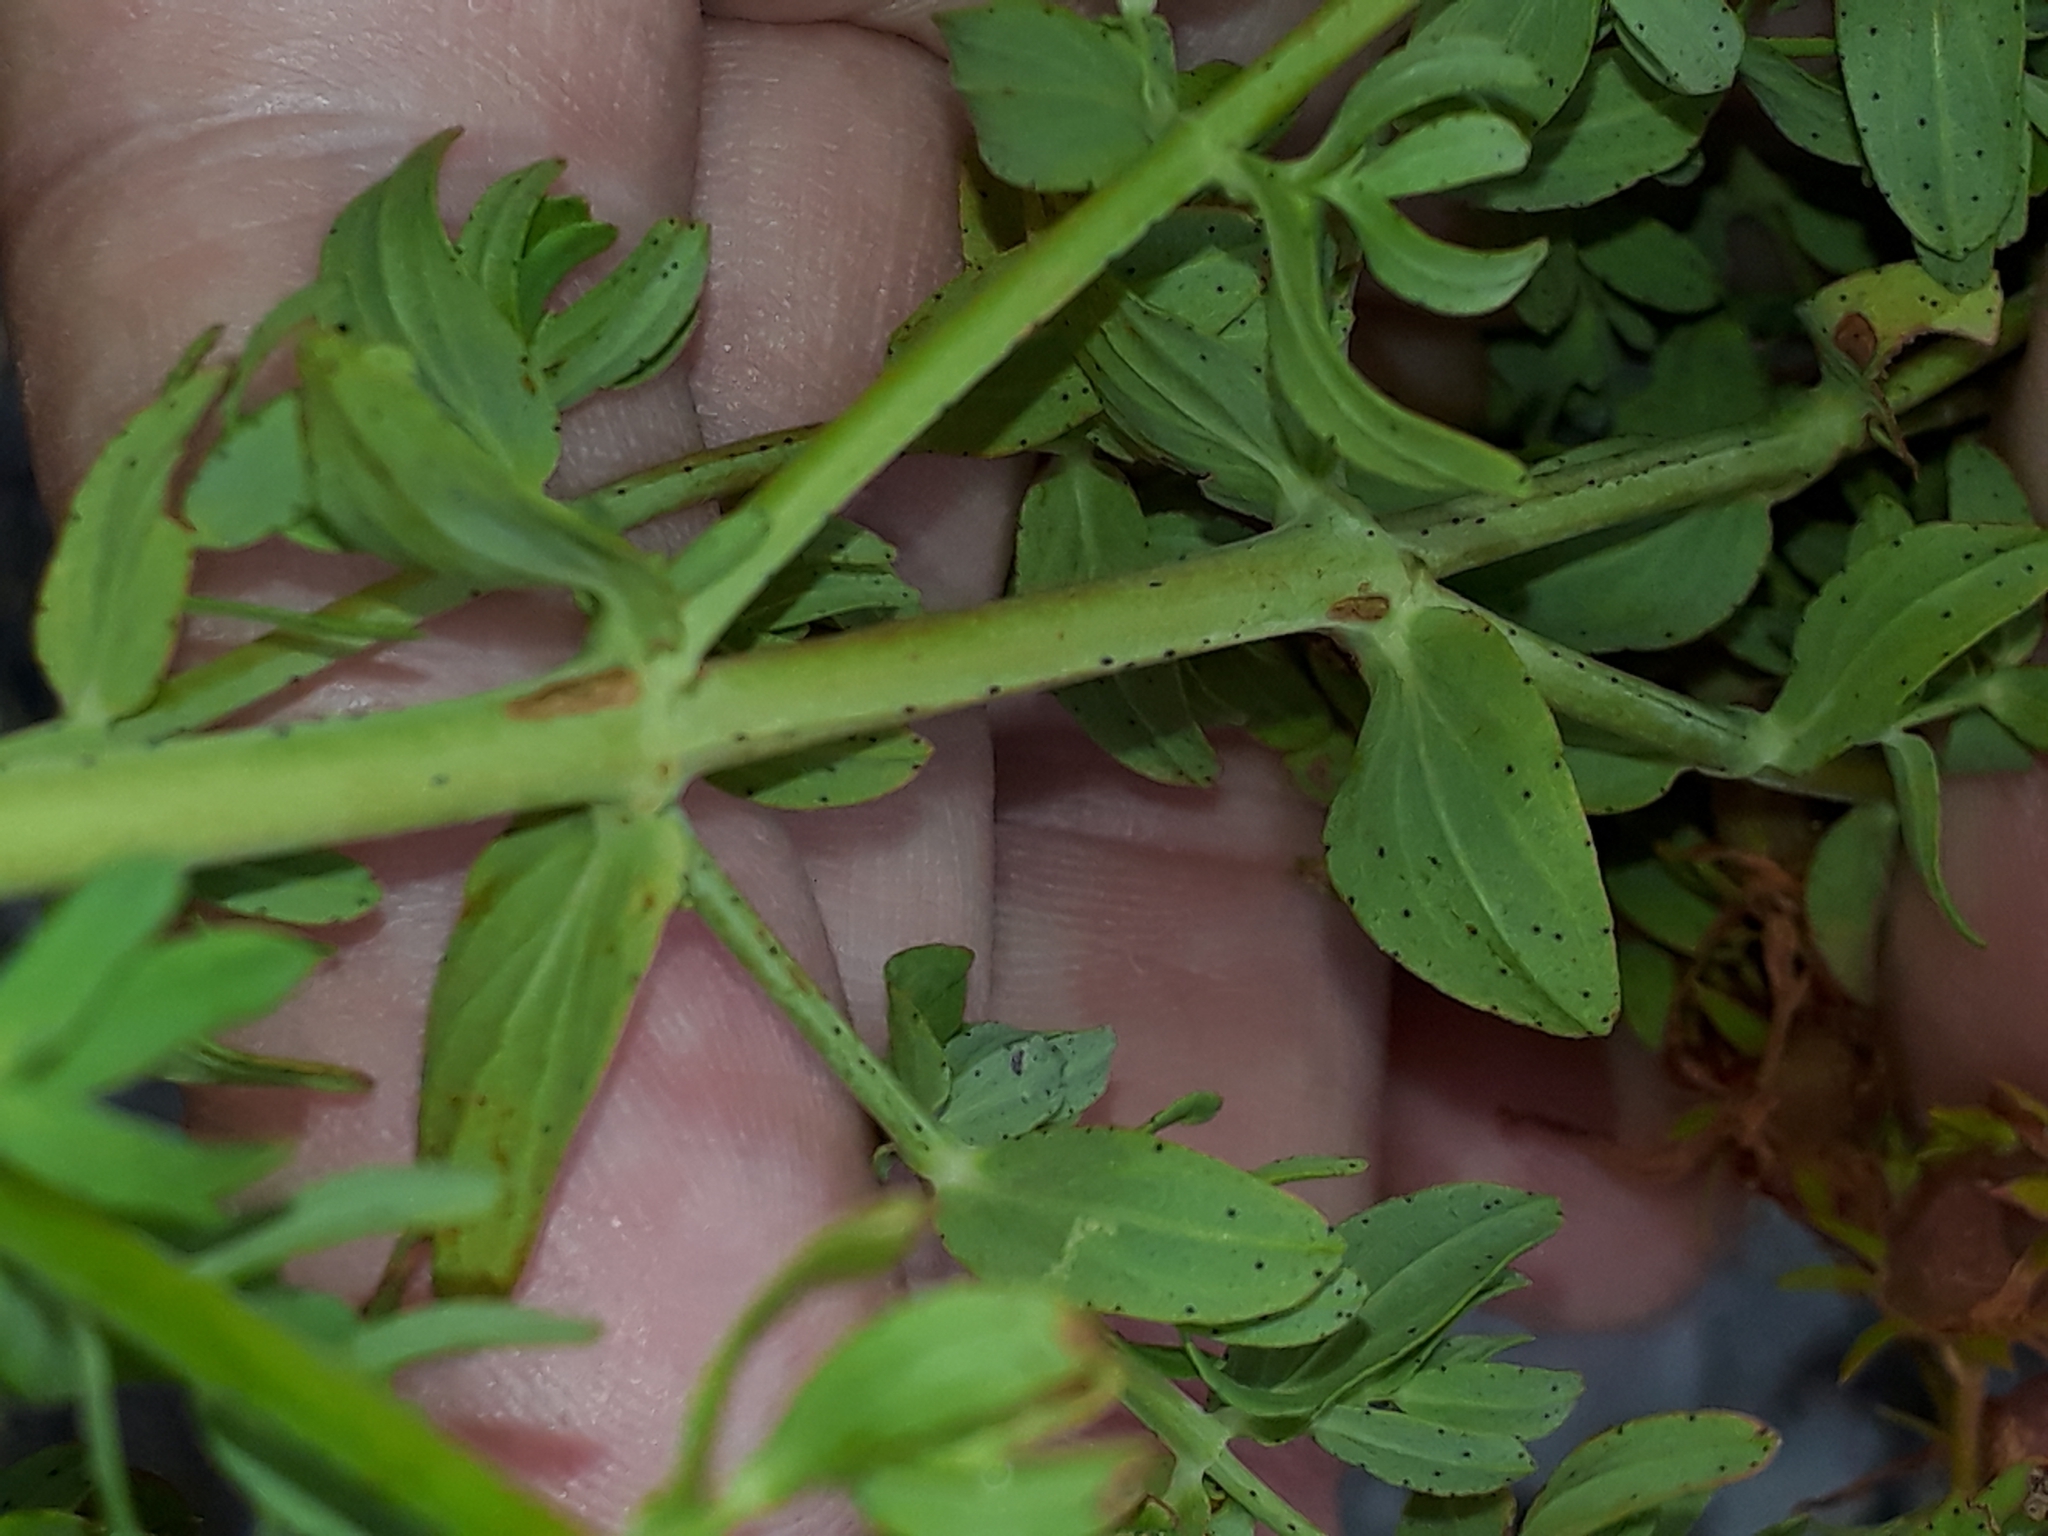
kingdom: Plantae
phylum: Tracheophyta
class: Magnoliopsida
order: Malpighiales
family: Hypericaceae
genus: Hypericum
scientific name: Hypericum perforatum
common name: Common st. johnswort
